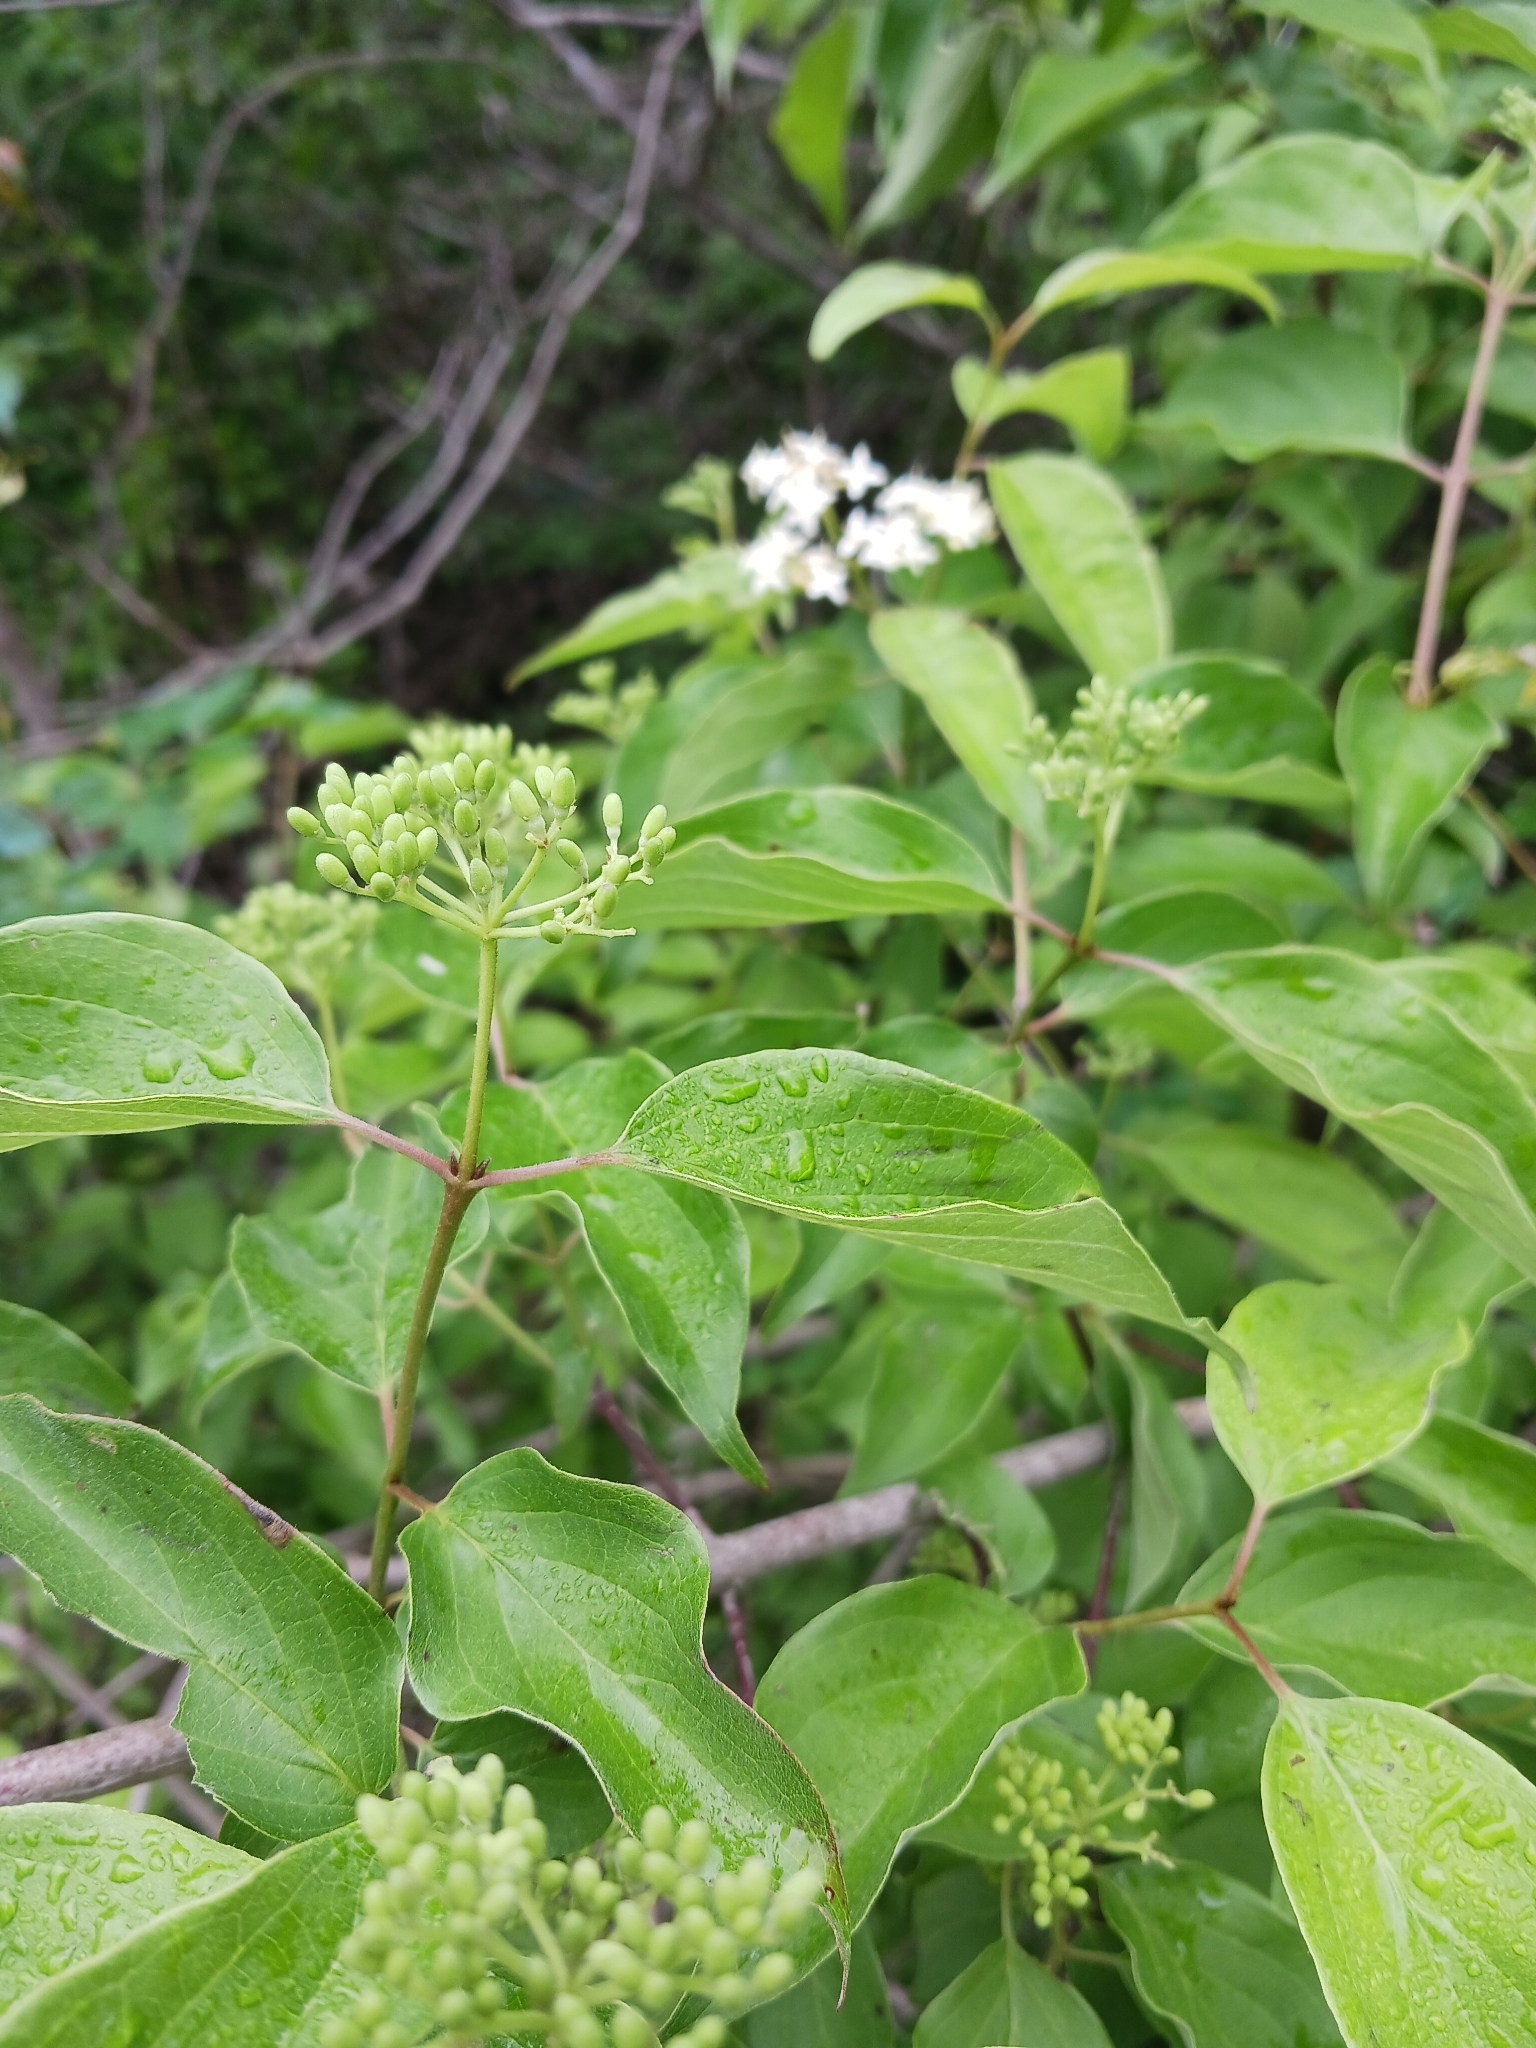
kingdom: Plantae
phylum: Tracheophyta
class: Magnoliopsida
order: Cornales
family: Cornaceae
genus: Cornus
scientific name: Cornus drummondii
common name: Rough-leaf dogwood
